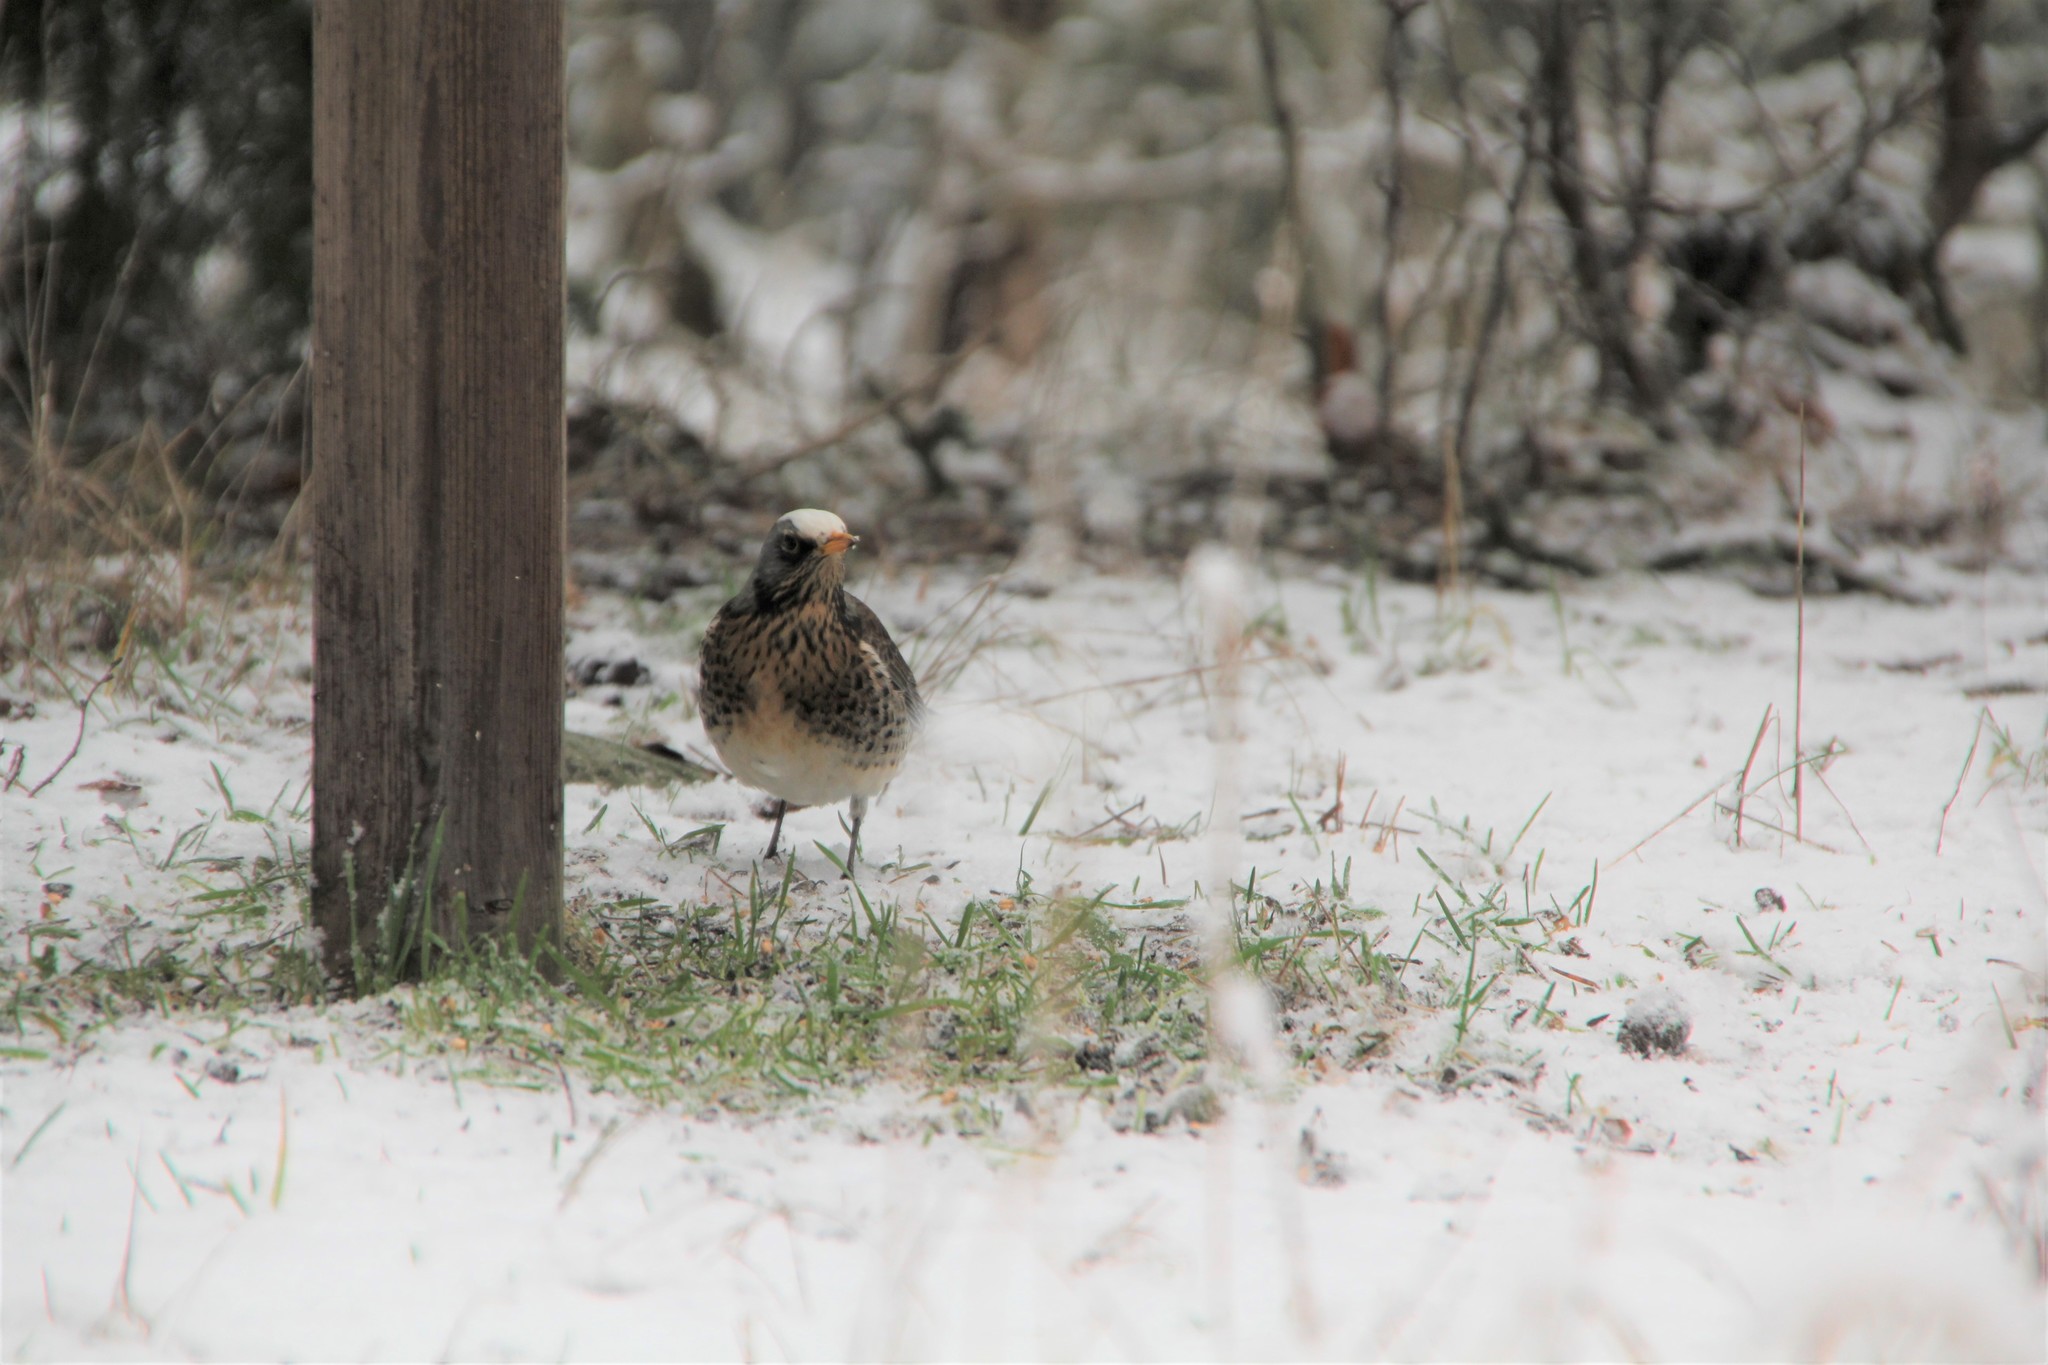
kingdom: Animalia
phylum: Chordata
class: Aves
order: Passeriformes
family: Turdidae
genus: Turdus
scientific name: Turdus pilaris
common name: Fieldfare
